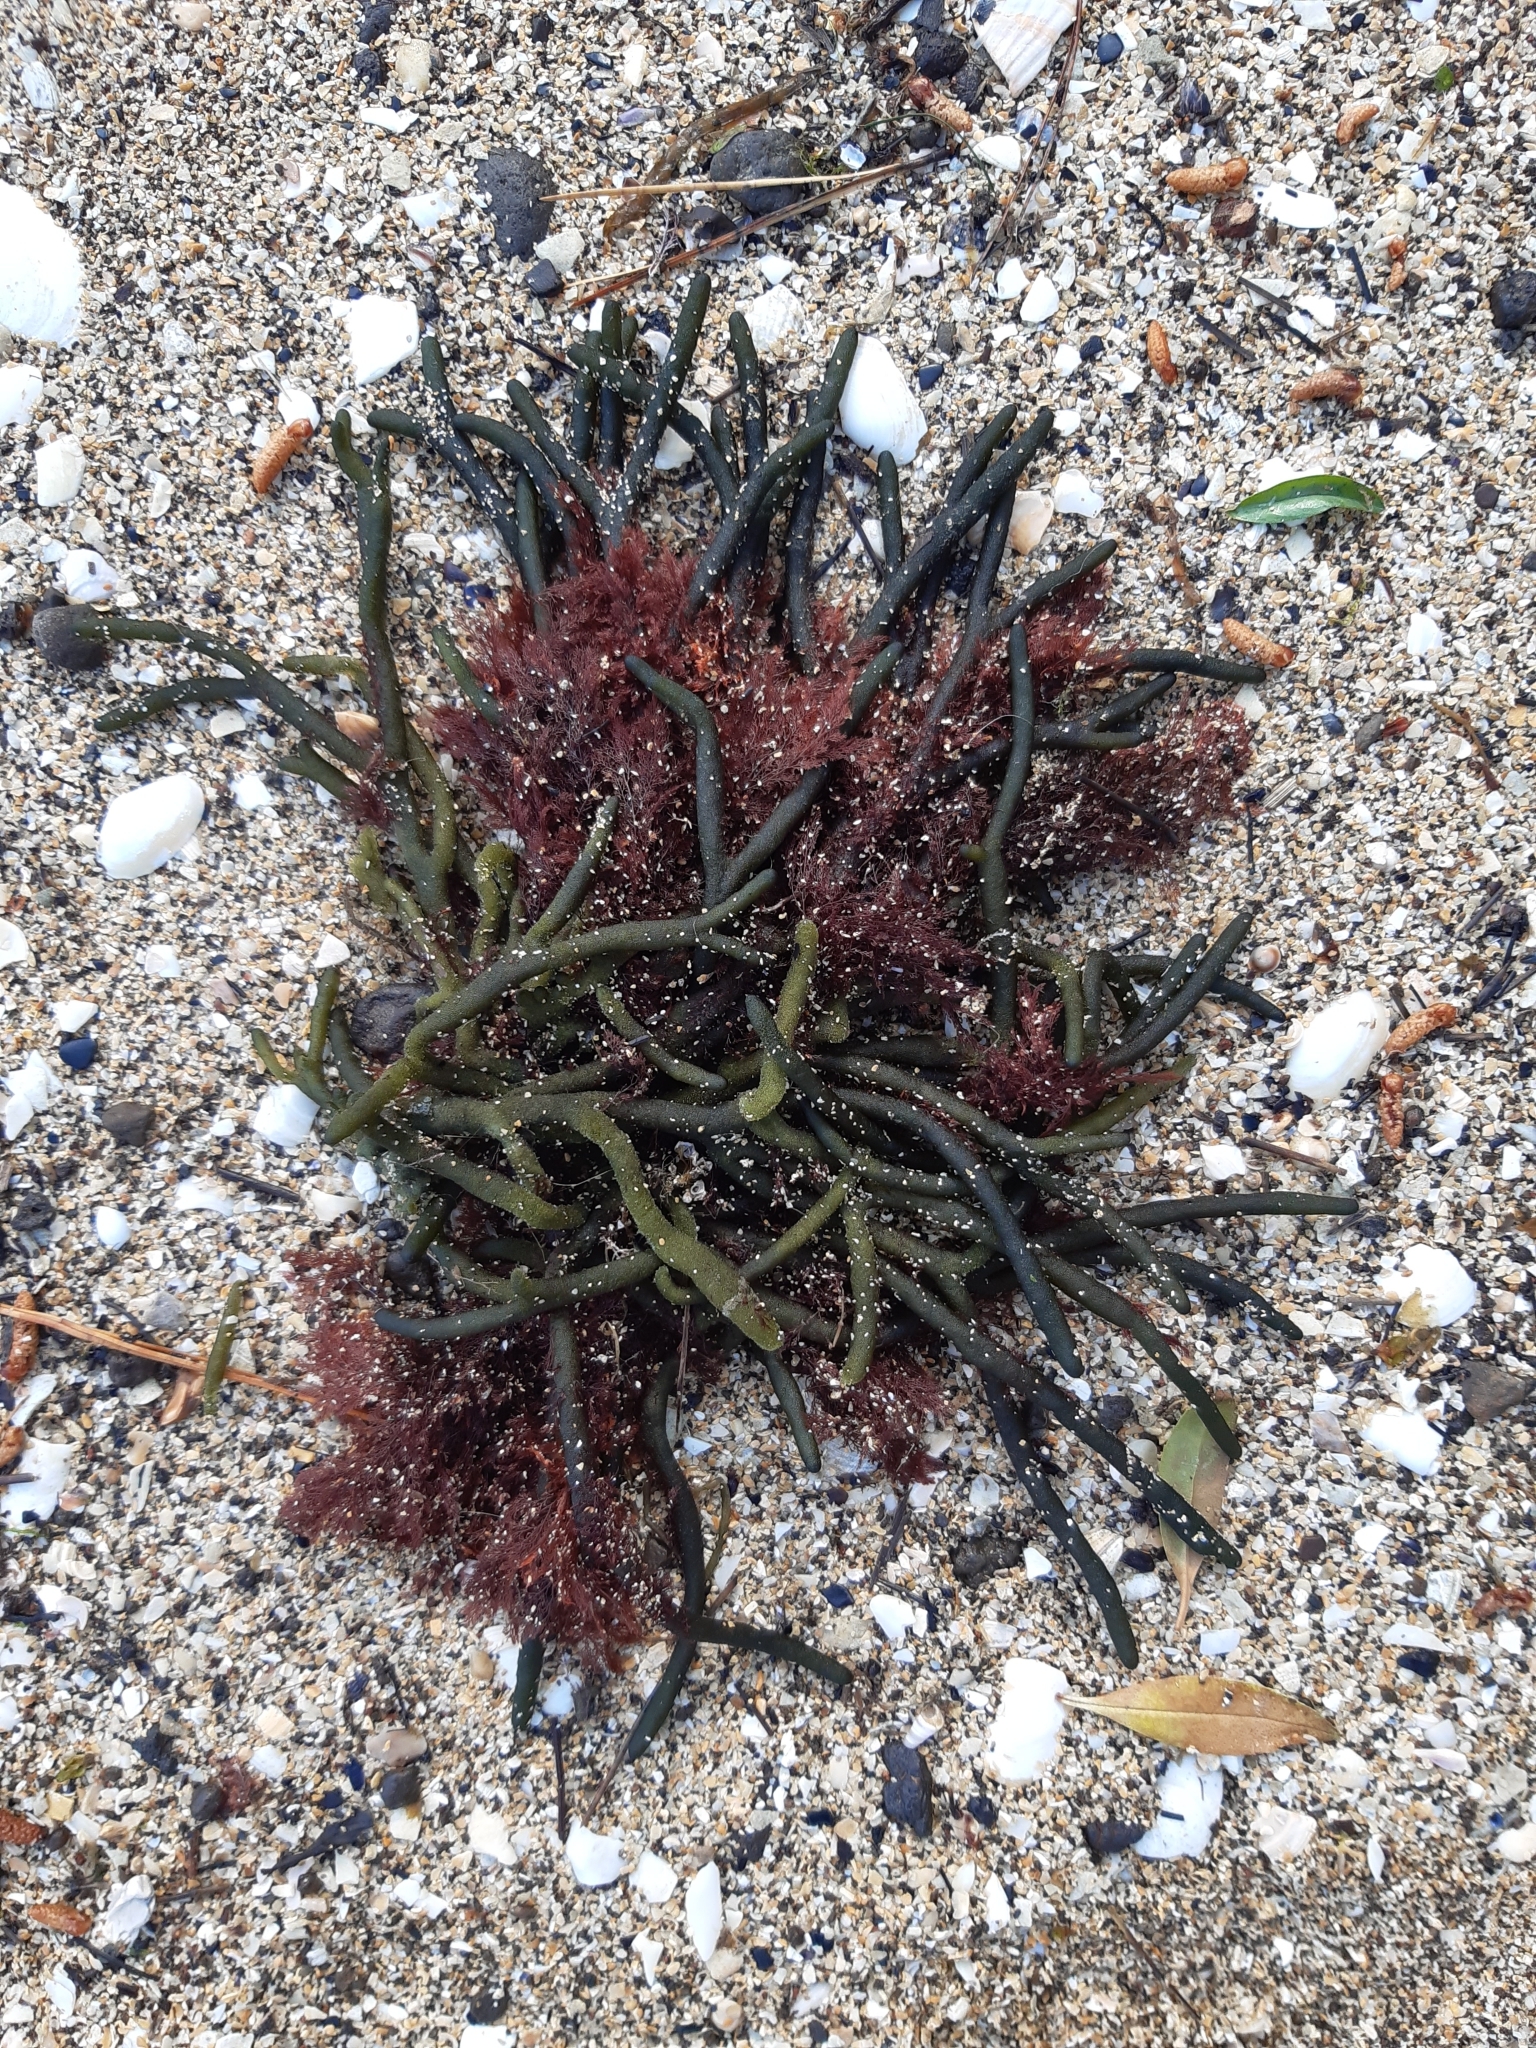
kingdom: Plantae
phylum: Chlorophyta
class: Ulvophyceae
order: Bryopsidales
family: Codiaceae
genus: Codium
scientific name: Codium fragile
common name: Dead man's fingers
